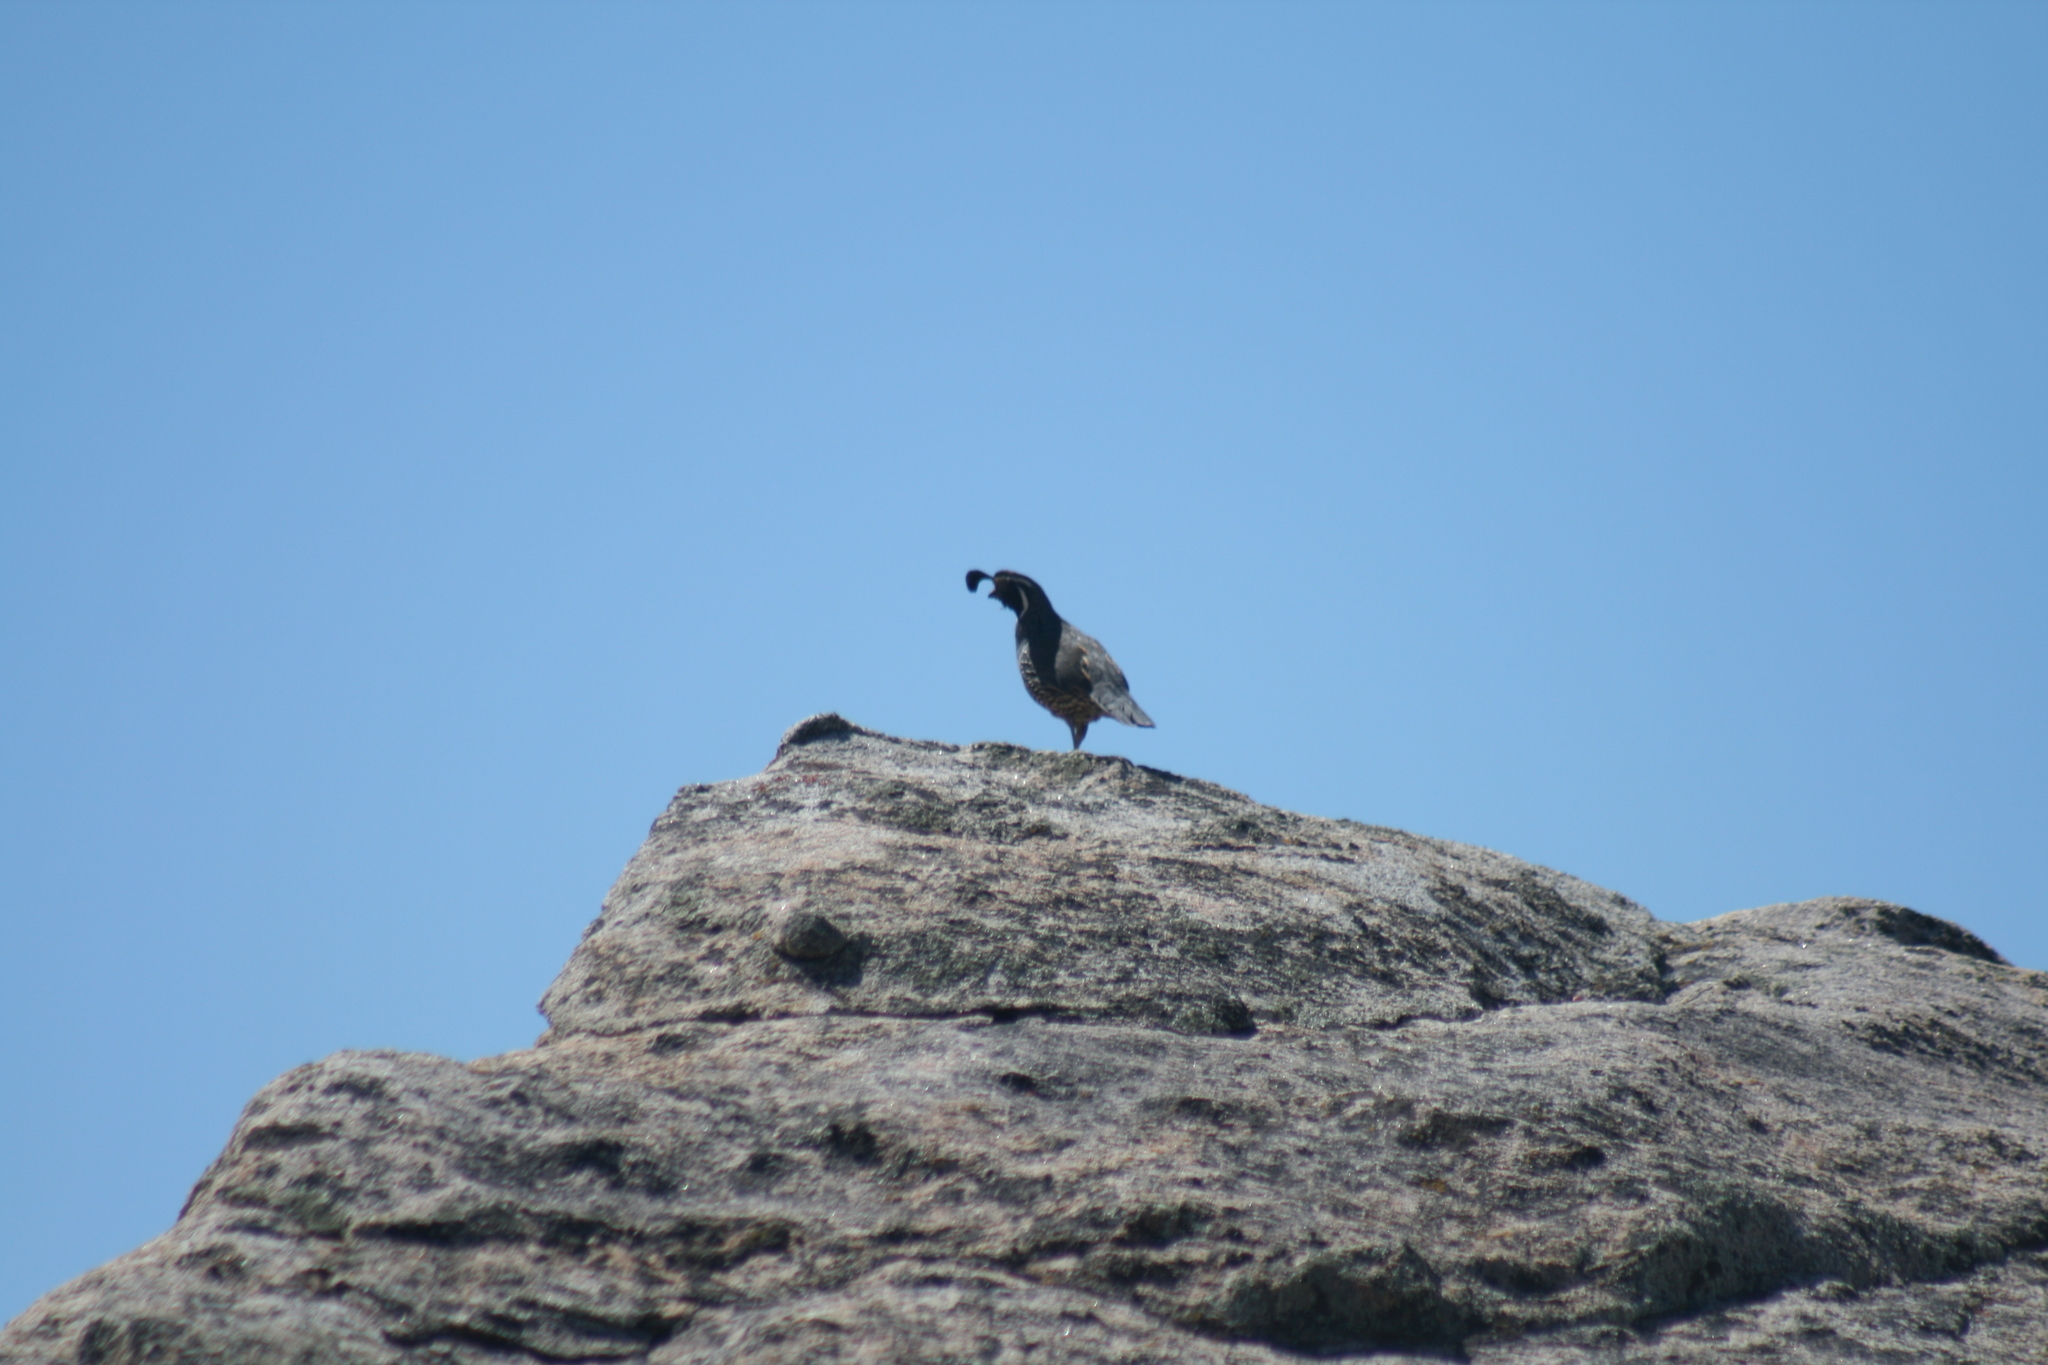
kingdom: Animalia
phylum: Chordata
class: Aves
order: Galliformes
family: Odontophoridae
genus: Callipepla
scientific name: Callipepla californica
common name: California quail
